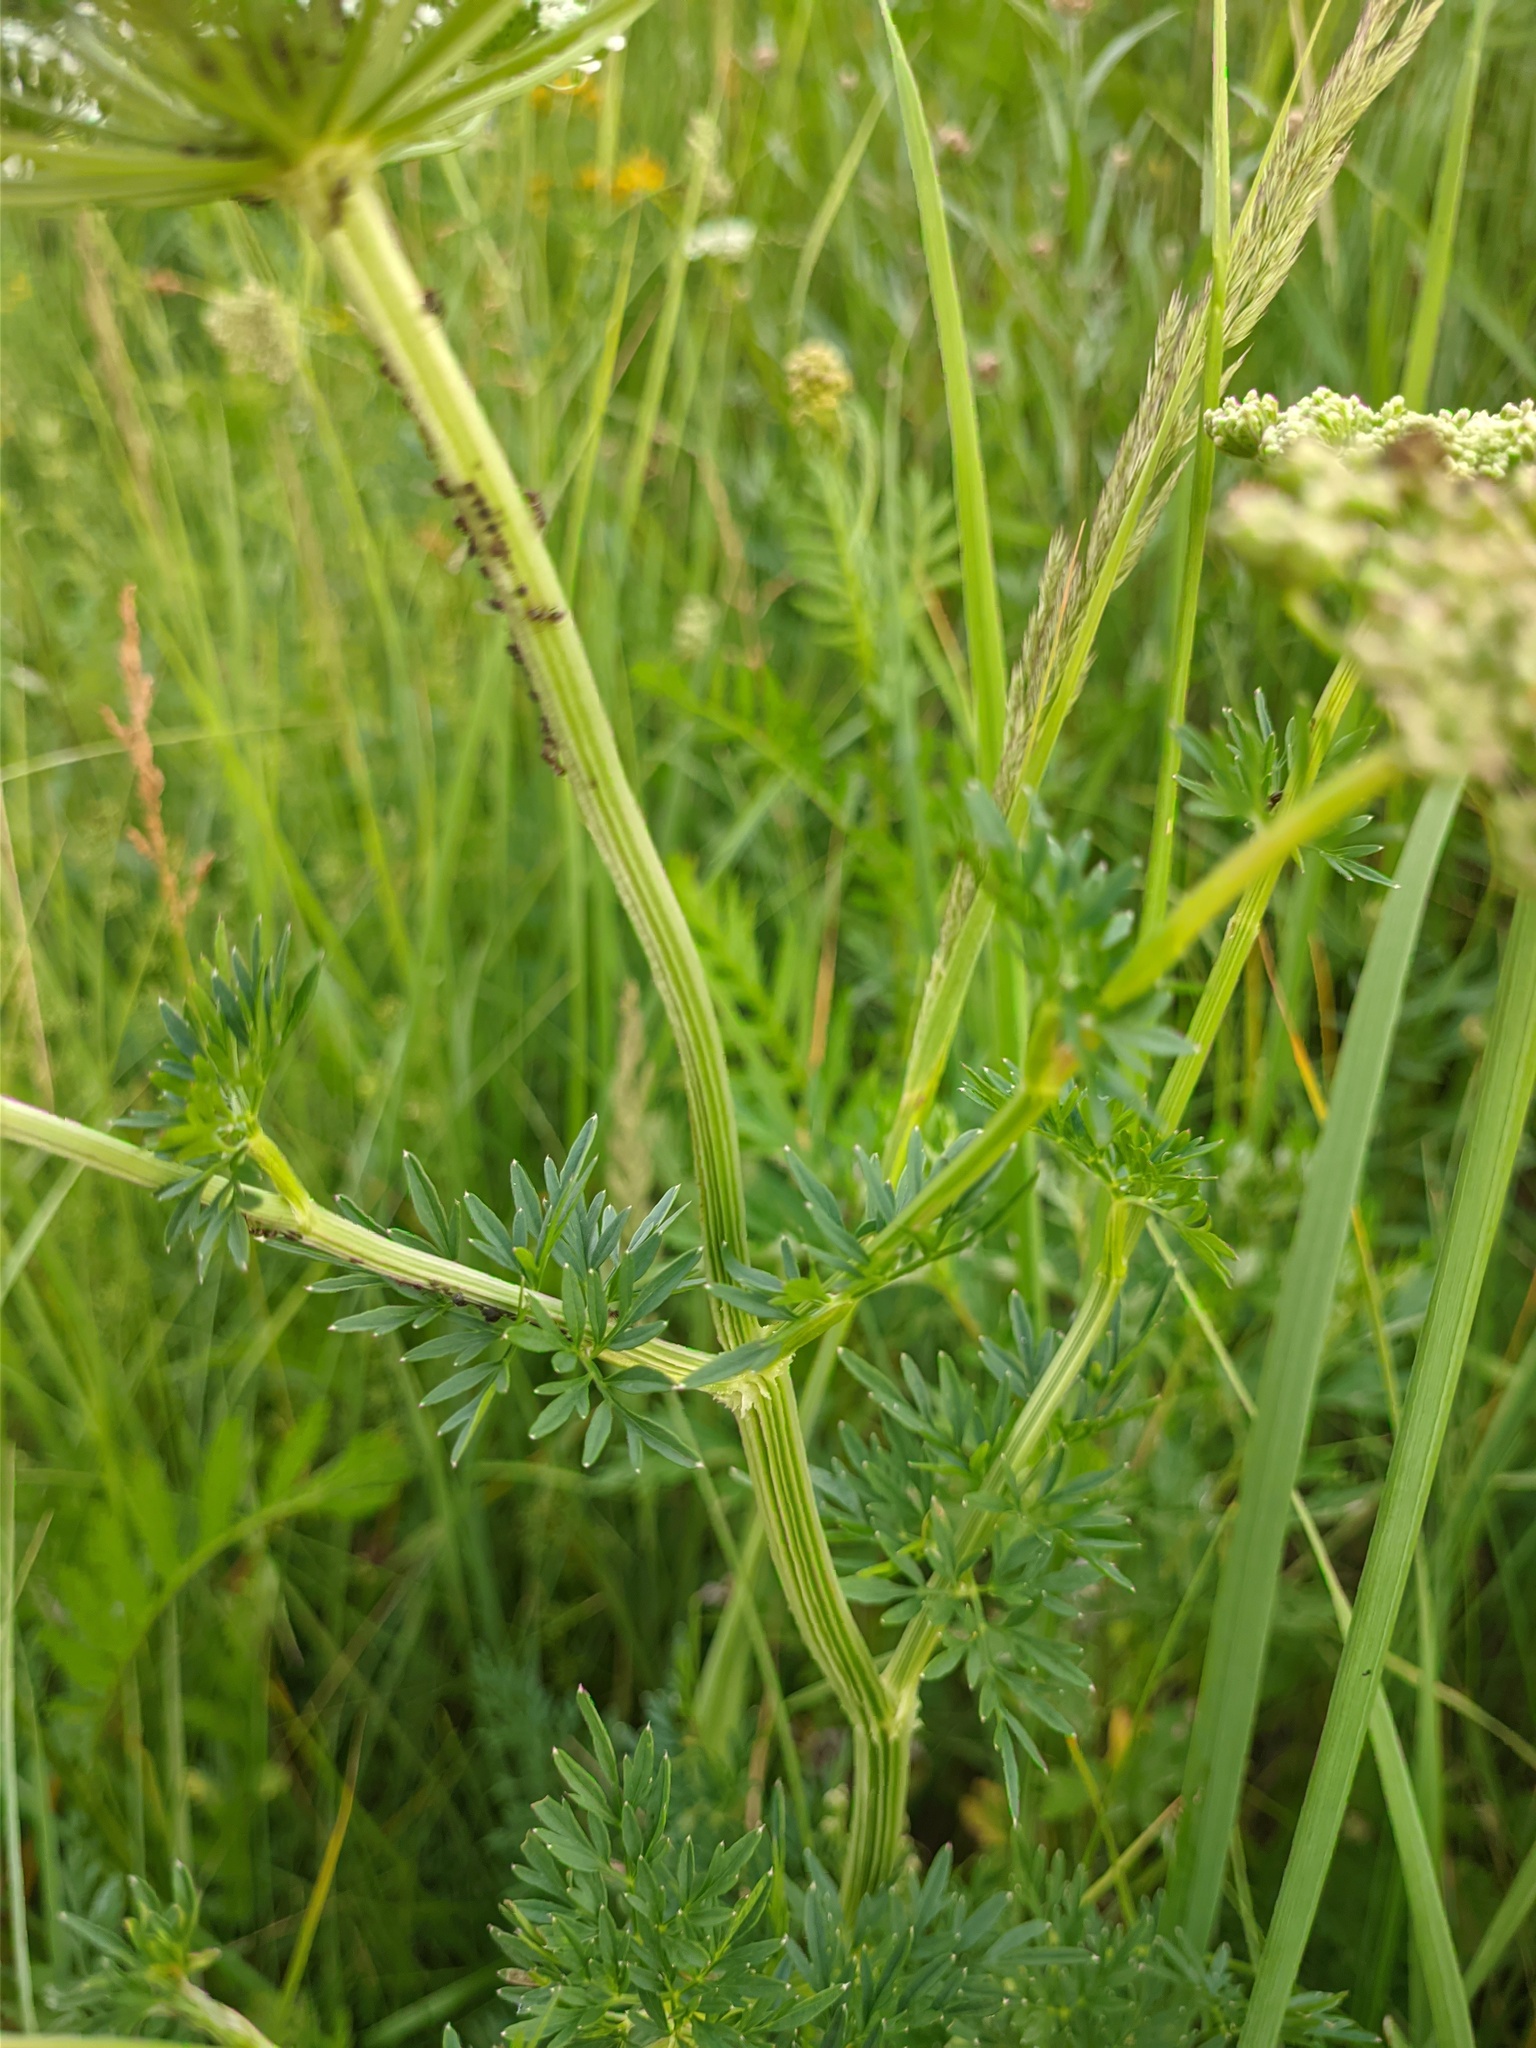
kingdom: Plantae
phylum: Tracheophyta
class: Magnoliopsida
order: Apiales
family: Apiaceae
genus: Selinum
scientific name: Selinum carvifolia
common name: Cambridge milk-parsley
